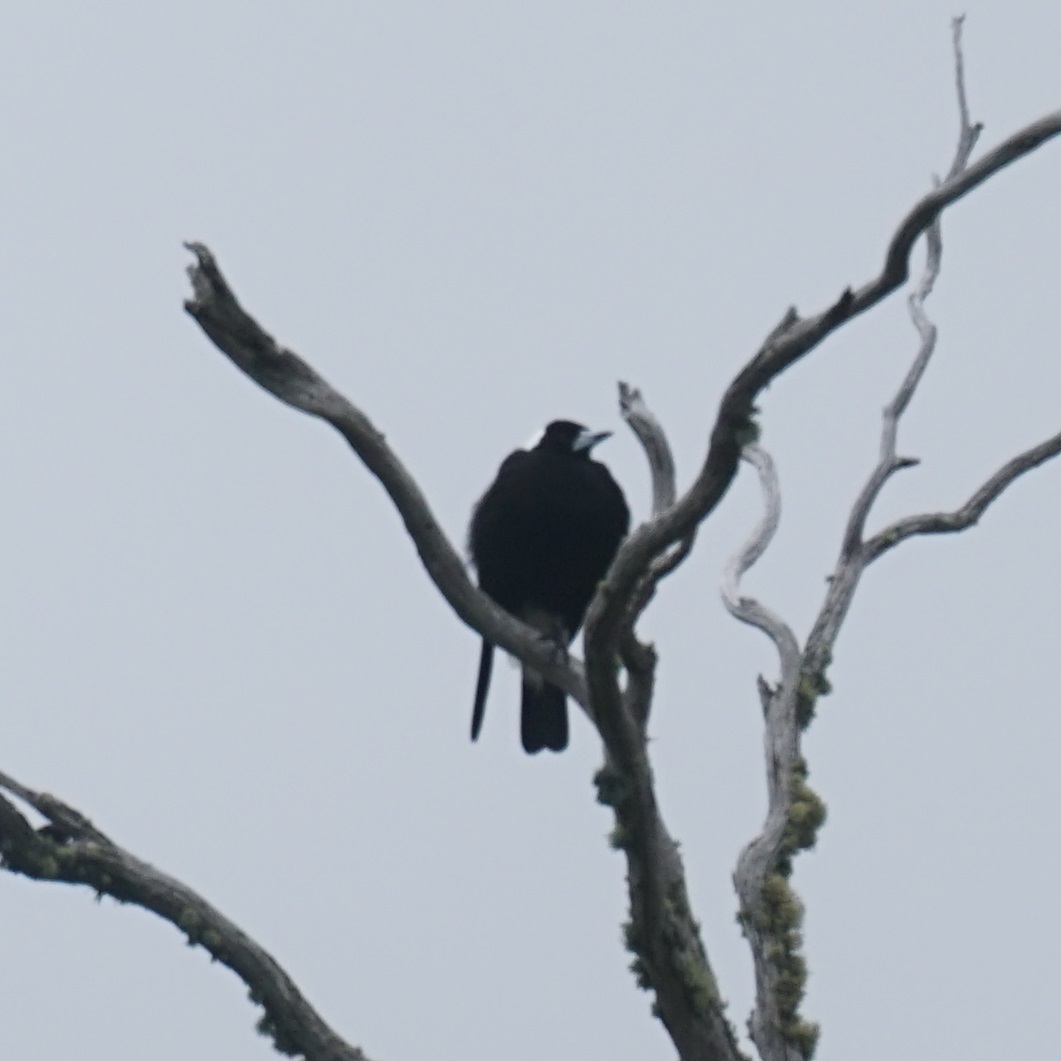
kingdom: Animalia
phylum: Chordata
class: Aves
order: Passeriformes
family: Cracticidae
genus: Gymnorhina
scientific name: Gymnorhina tibicen
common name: Australian magpie
